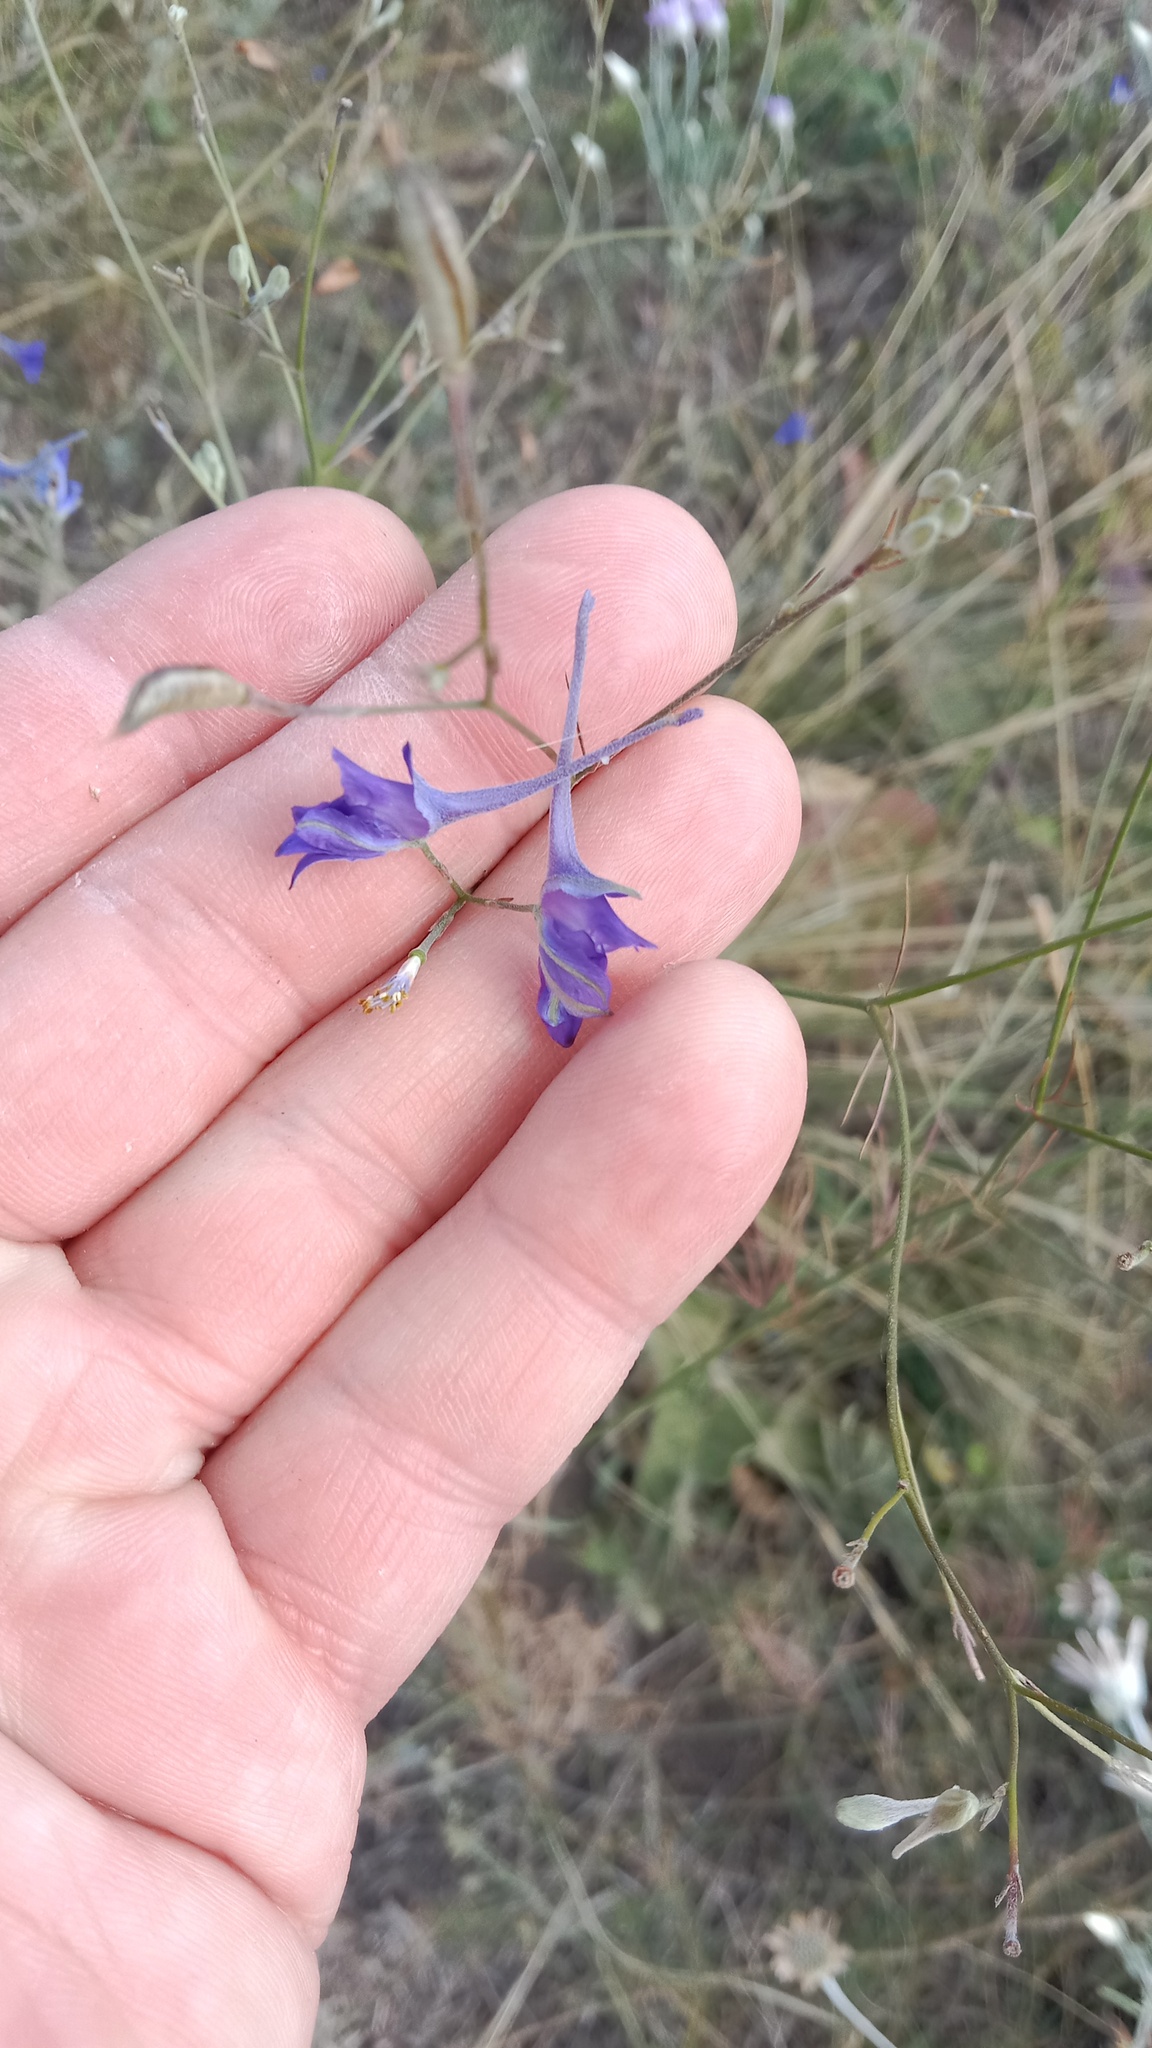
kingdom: Plantae
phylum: Tracheophyta
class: Magnoliopsida
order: Ranunculales
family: Ranunculaceae
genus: Delphinium
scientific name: Delphinium consolida
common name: Branching larkspur
